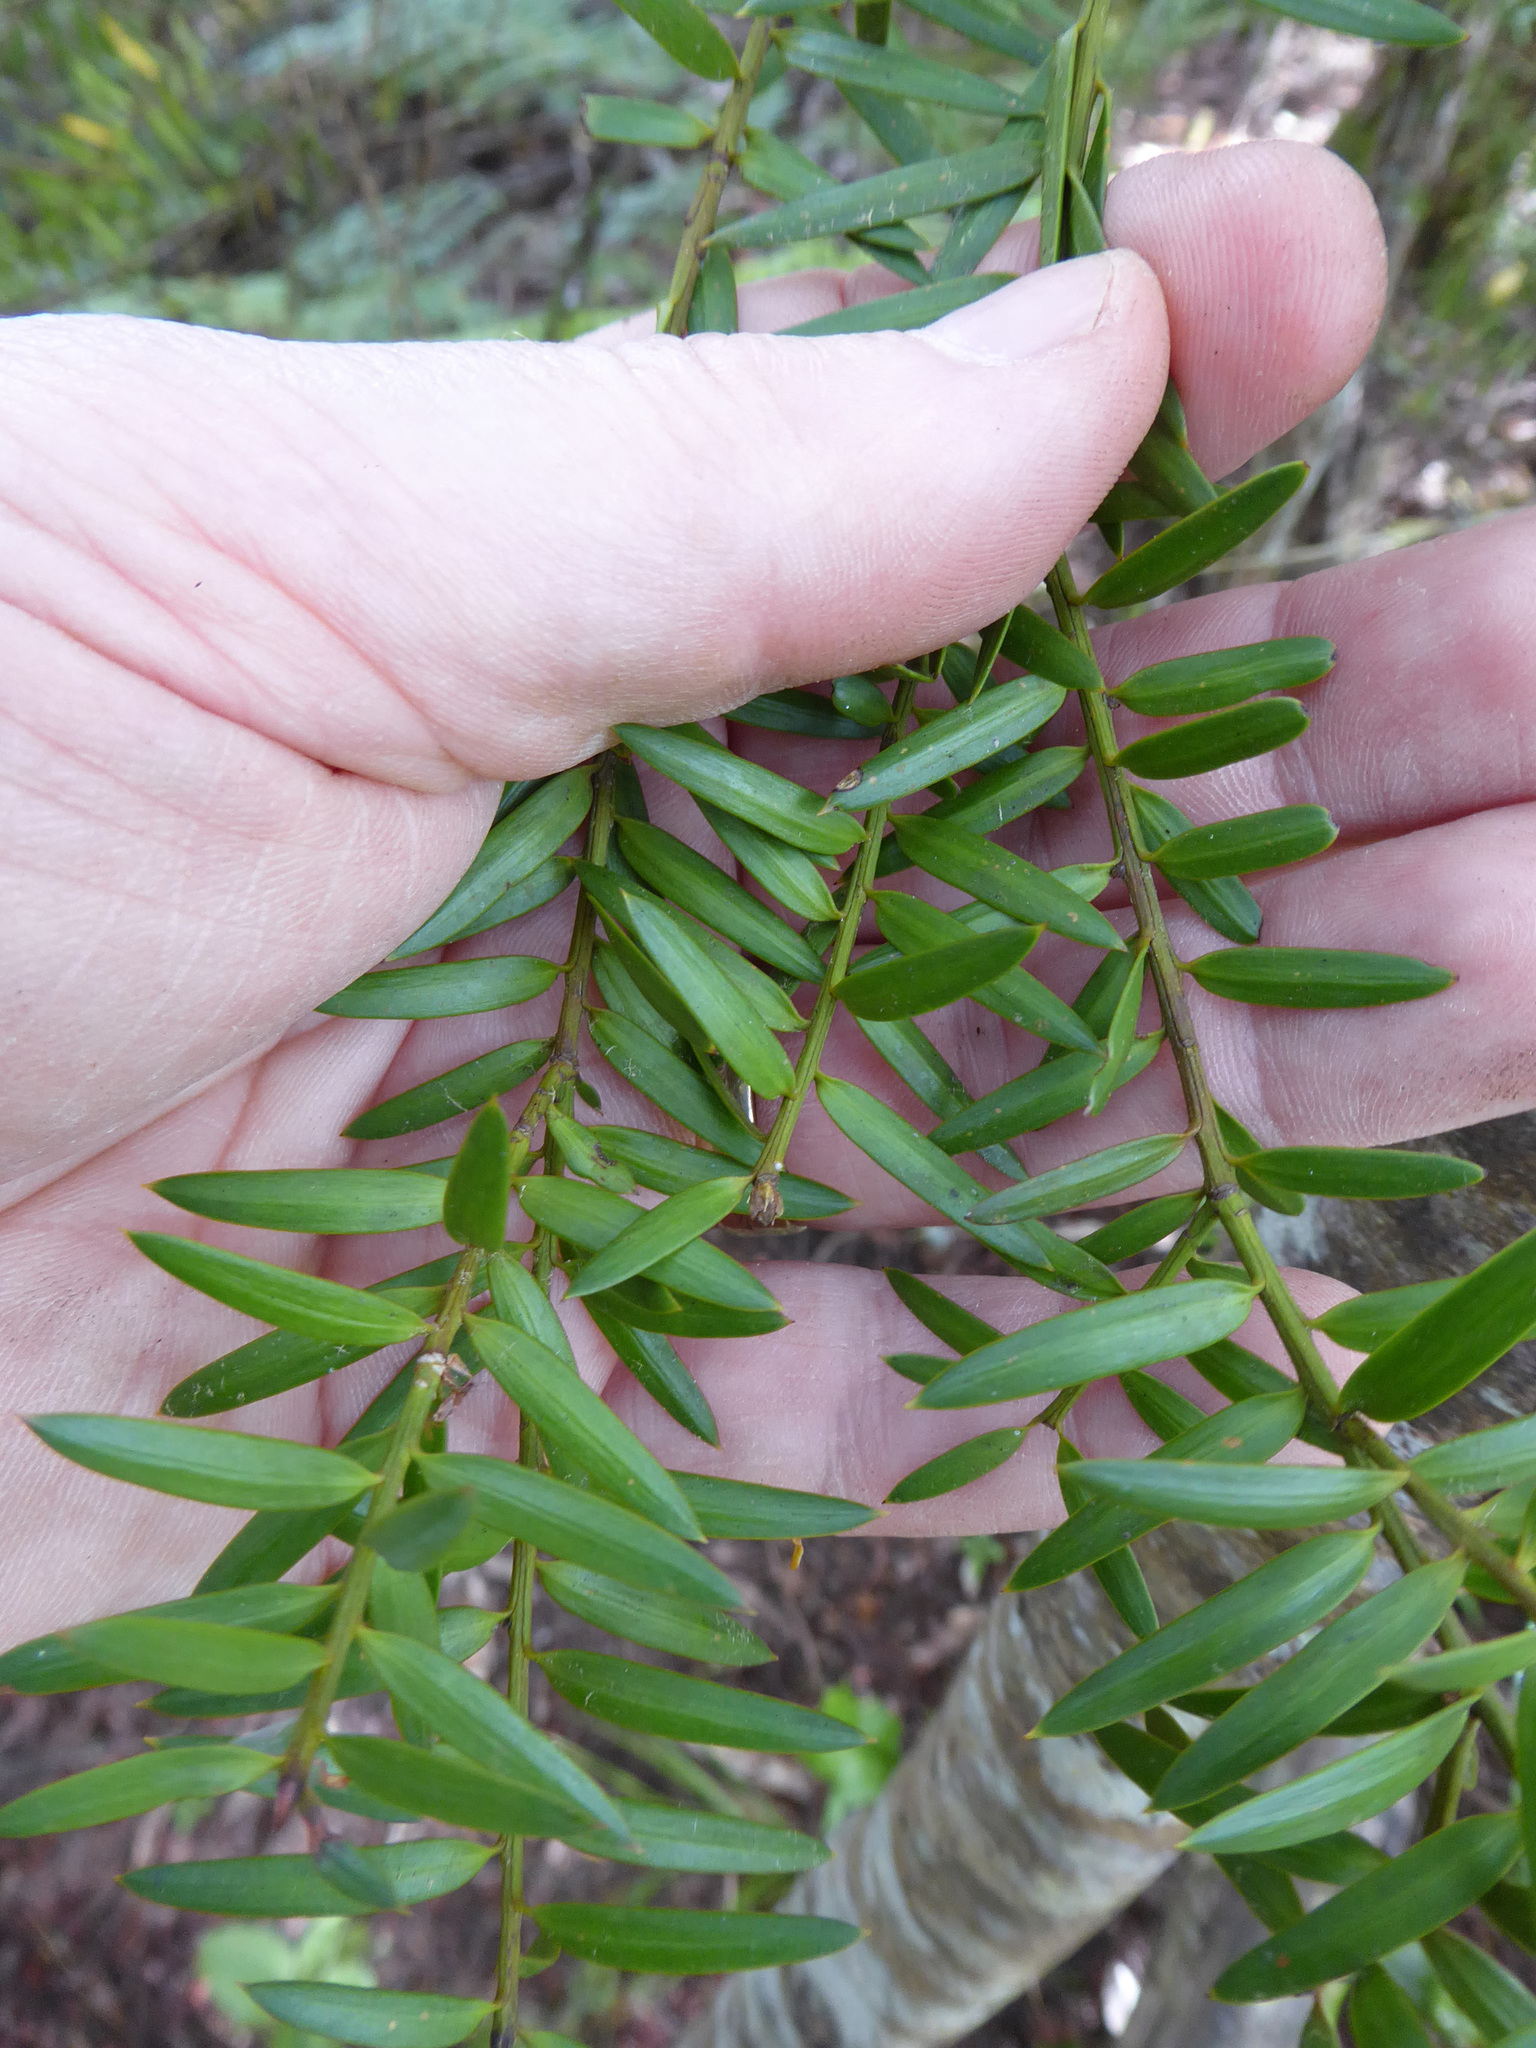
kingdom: Plantae
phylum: Tracheophyta
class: Pinopsida
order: Pinales
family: Podocarpaceae
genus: Podocarpus
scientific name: Podocarpus totara
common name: Totara
